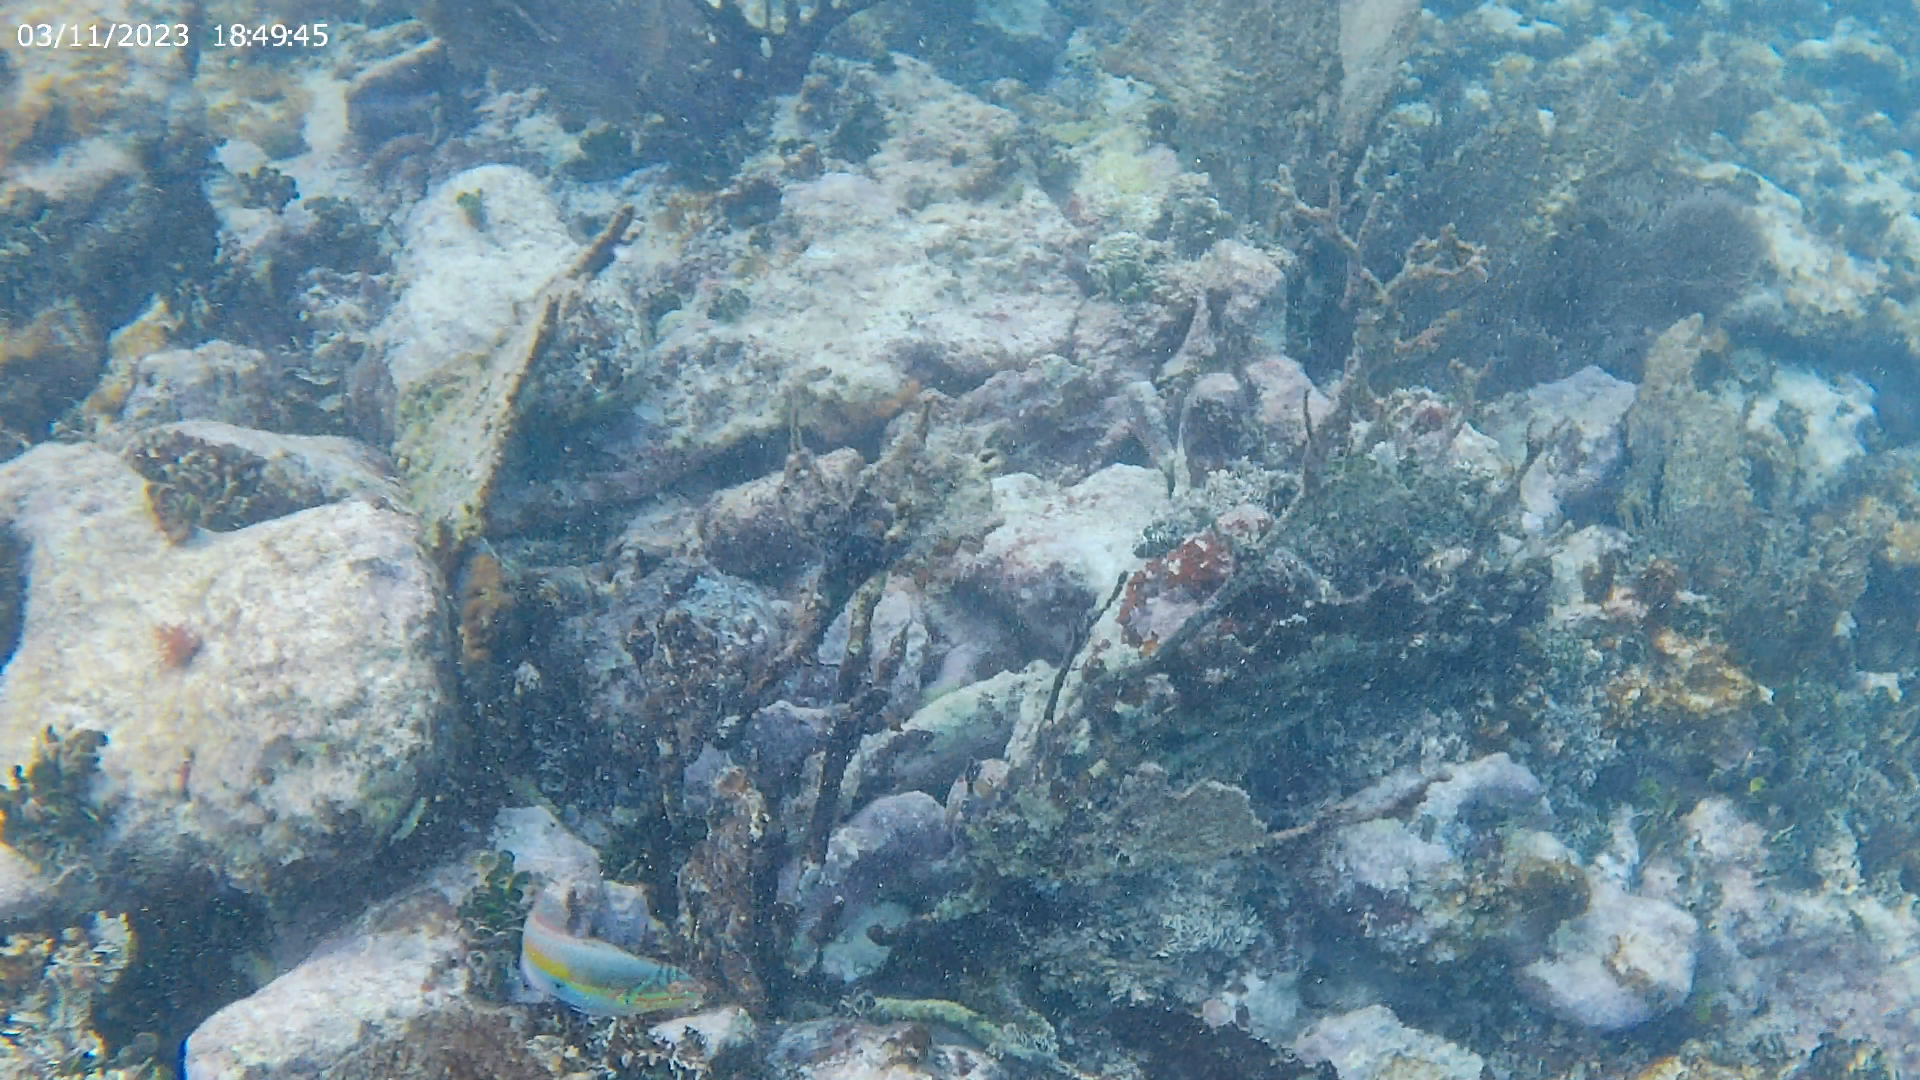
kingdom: Animalia
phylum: Chordata
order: Perciformes
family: Labridae
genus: Halichoeres
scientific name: Halichoeres maculipinna
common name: Clown wrasse
